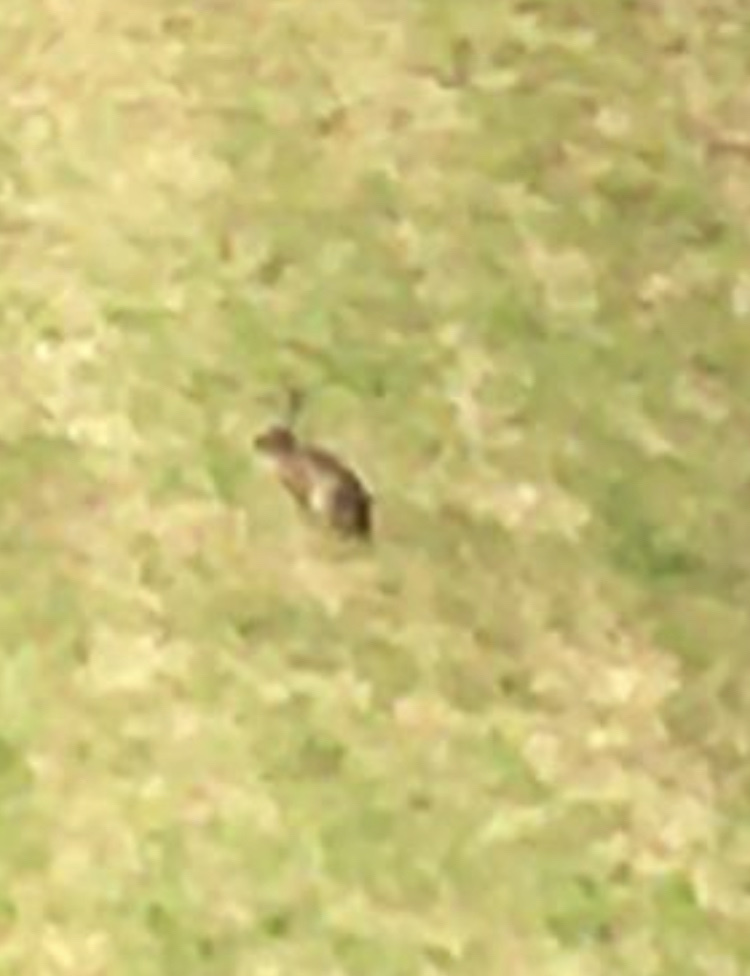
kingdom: Animalia
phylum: Chordata
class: Mammalia
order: Lagomorpha
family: Leporidae
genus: Lepus
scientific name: Lepus europaeus
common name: European hare
